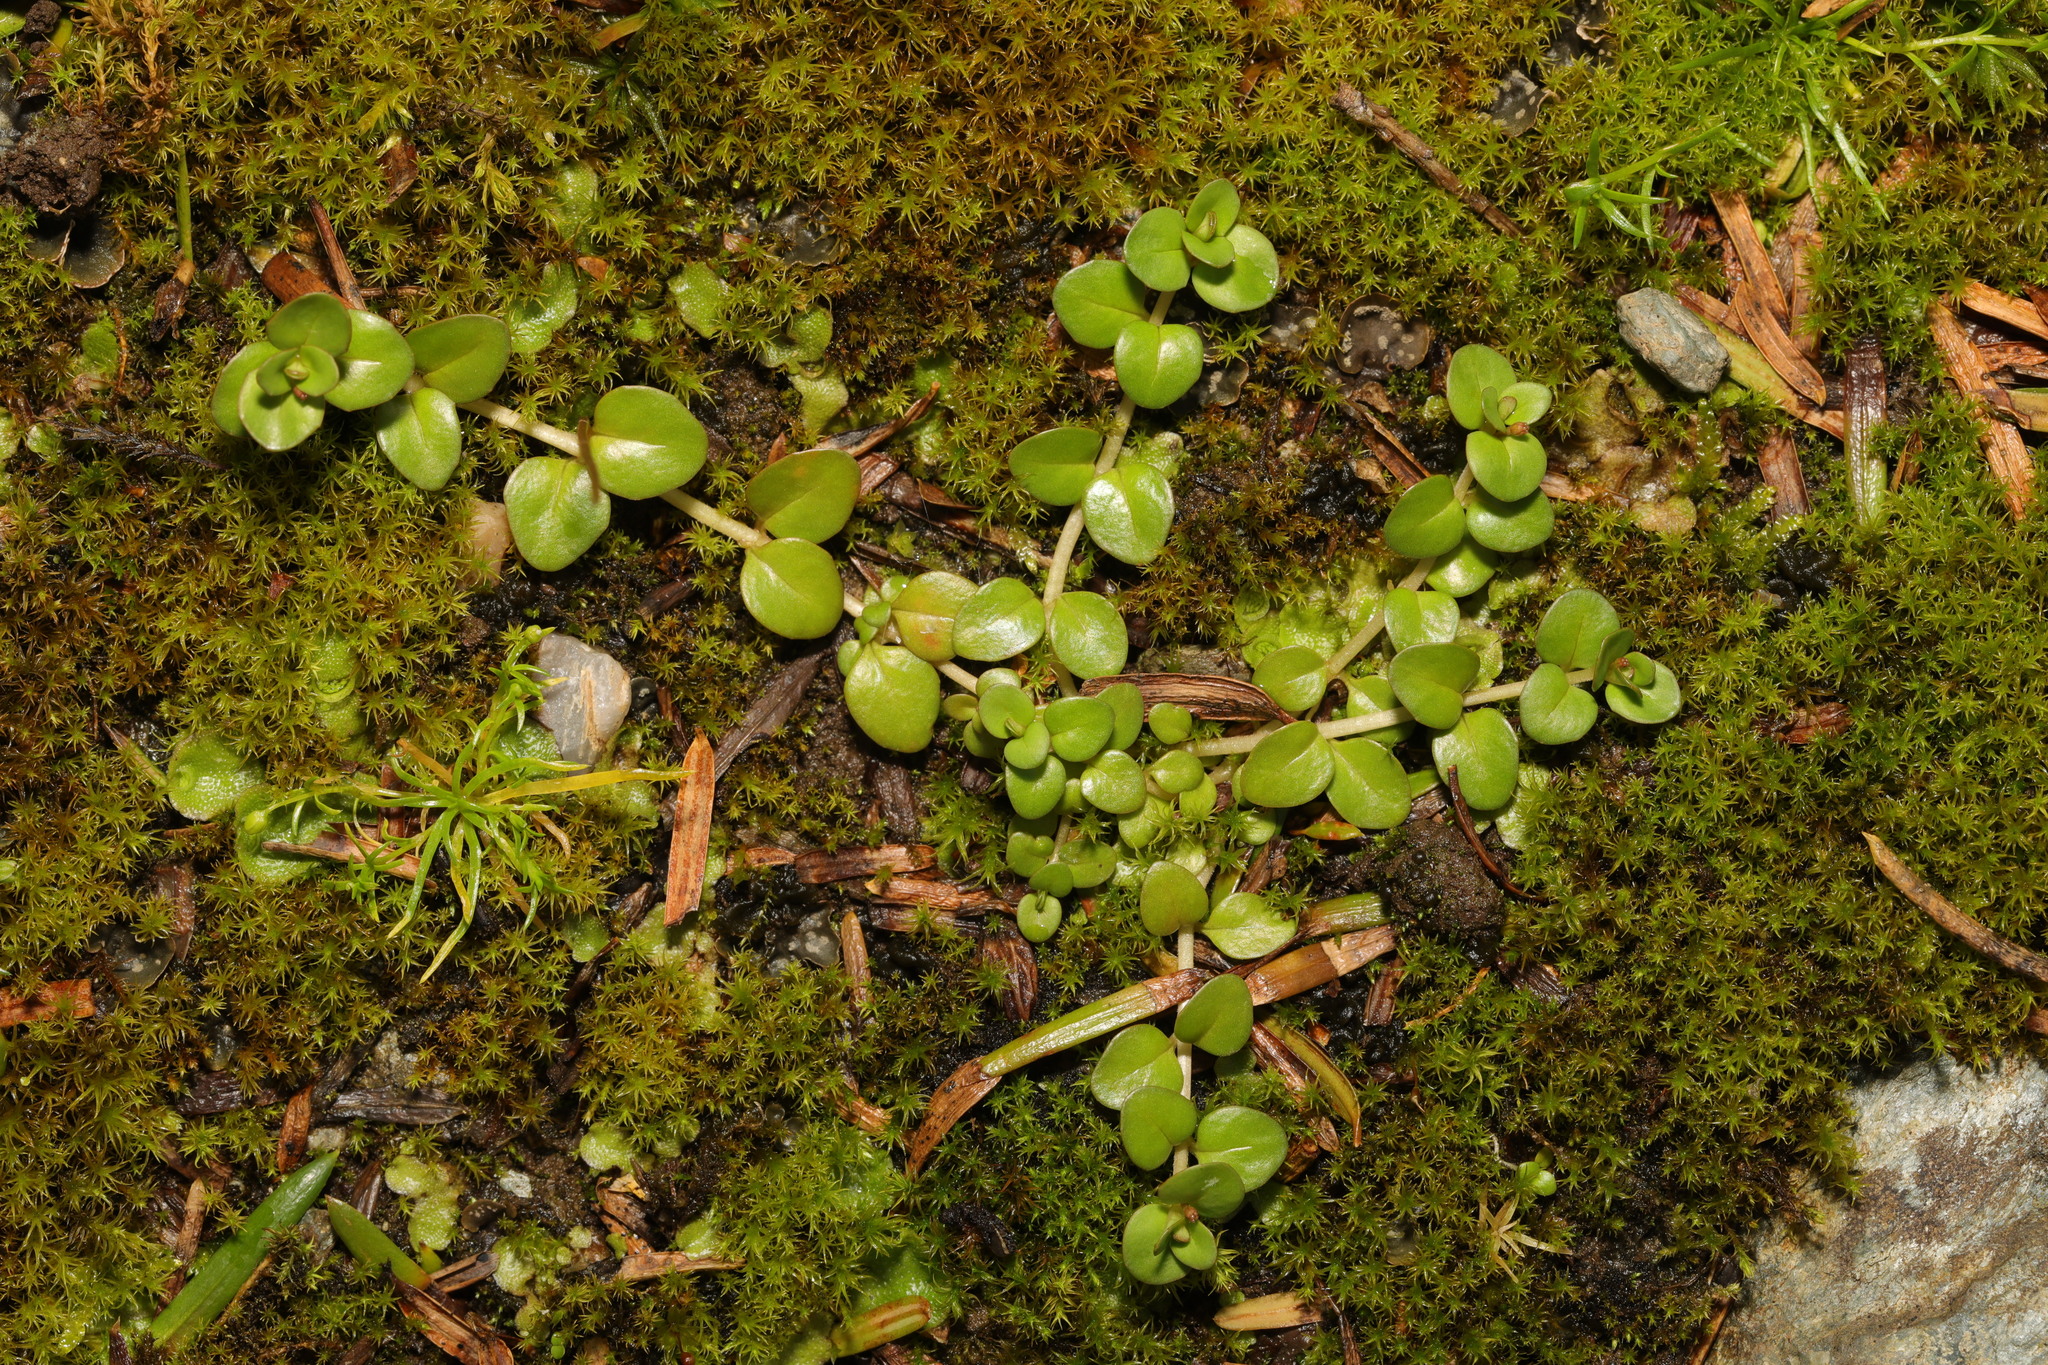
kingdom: Plantae
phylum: Tracheophyta
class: Magnoliopsida
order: Myrtales
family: Onagraceae
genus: Epilobium
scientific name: Epilobium brunnescens
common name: New zealand willowherb
